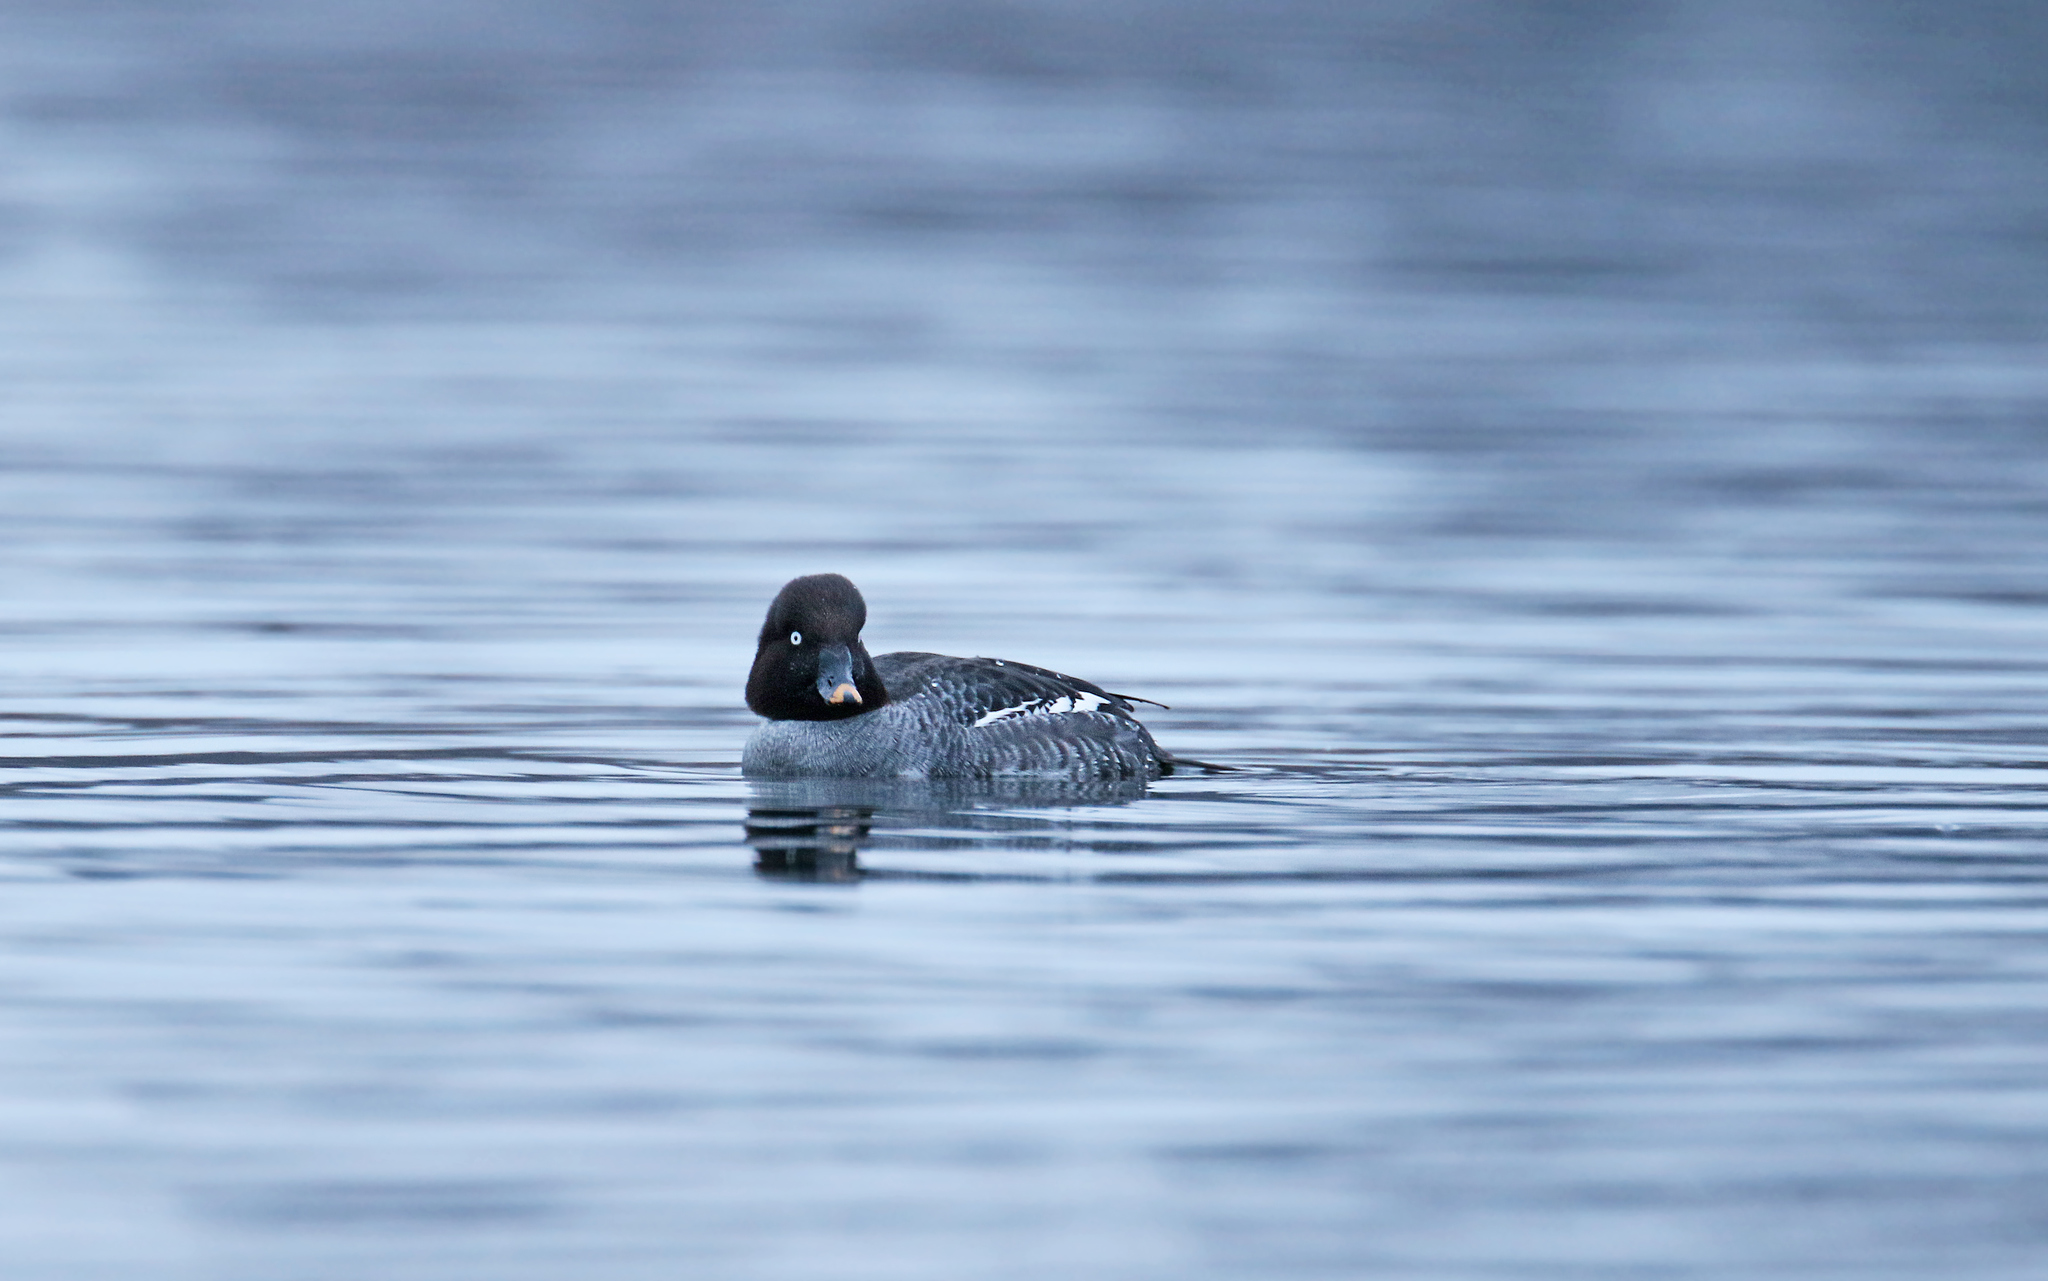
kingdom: Animalia
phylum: Chordata
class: Aves
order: Anseriformes
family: Anatidae
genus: Bucephala
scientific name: Bucephala clangula
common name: Common goldeneye
